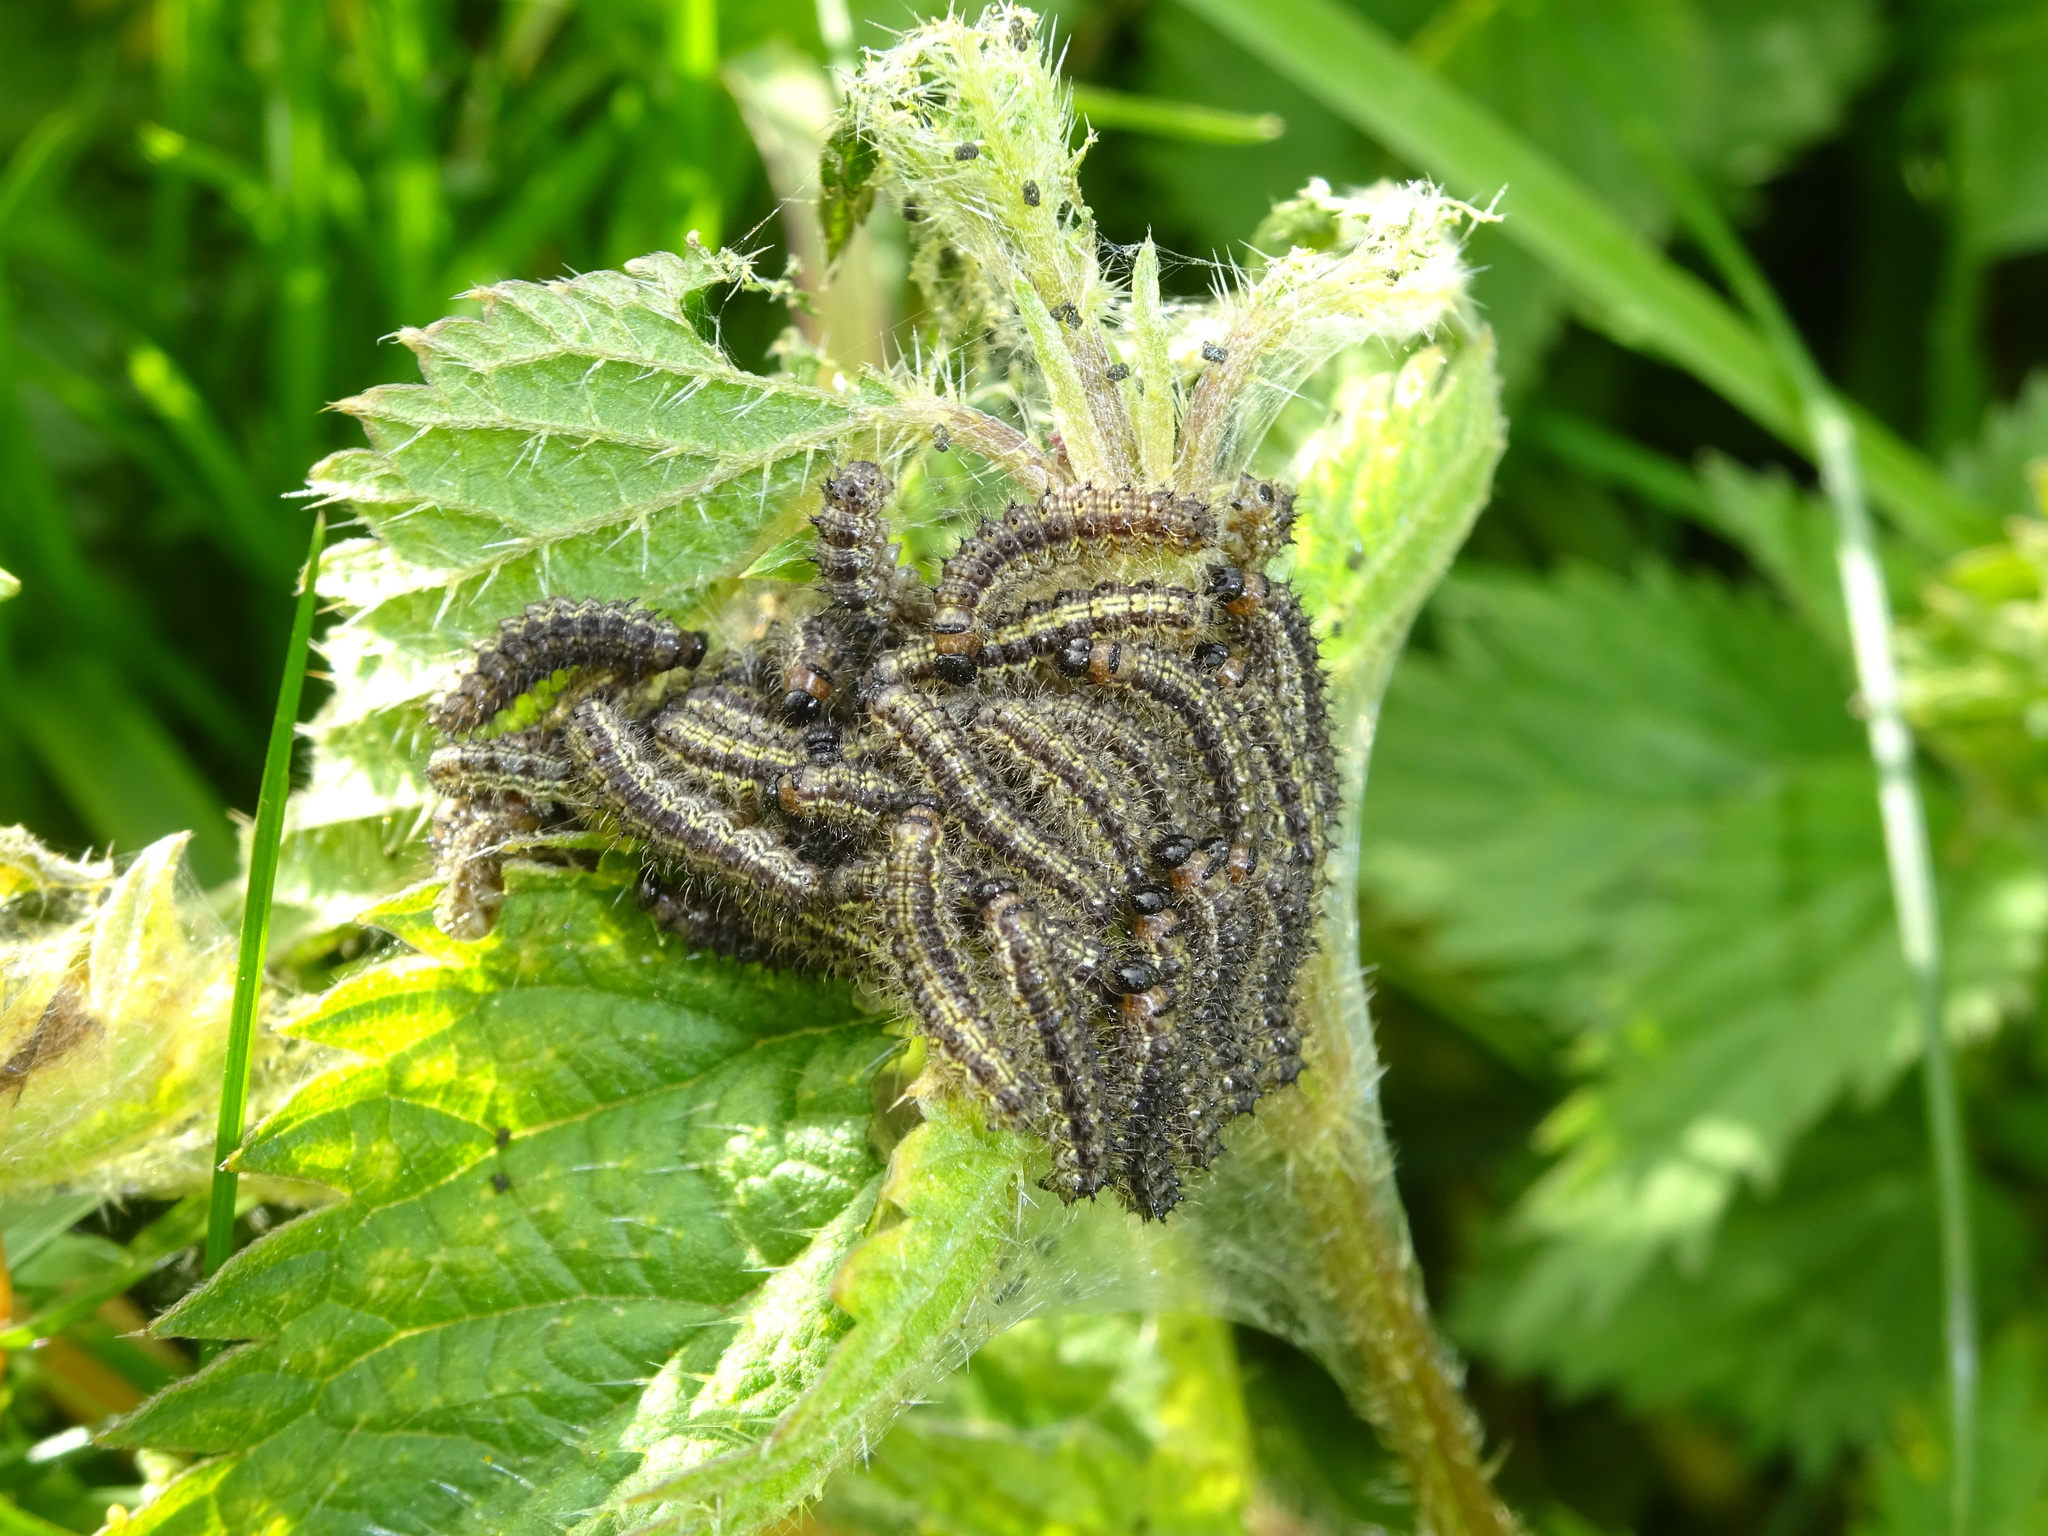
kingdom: Animalia
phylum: Arthropoda
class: Insecta
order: Lepidoptera
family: Nymphalidae
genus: Aglais
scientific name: Aglais urticae
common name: Small tortoiseshell
